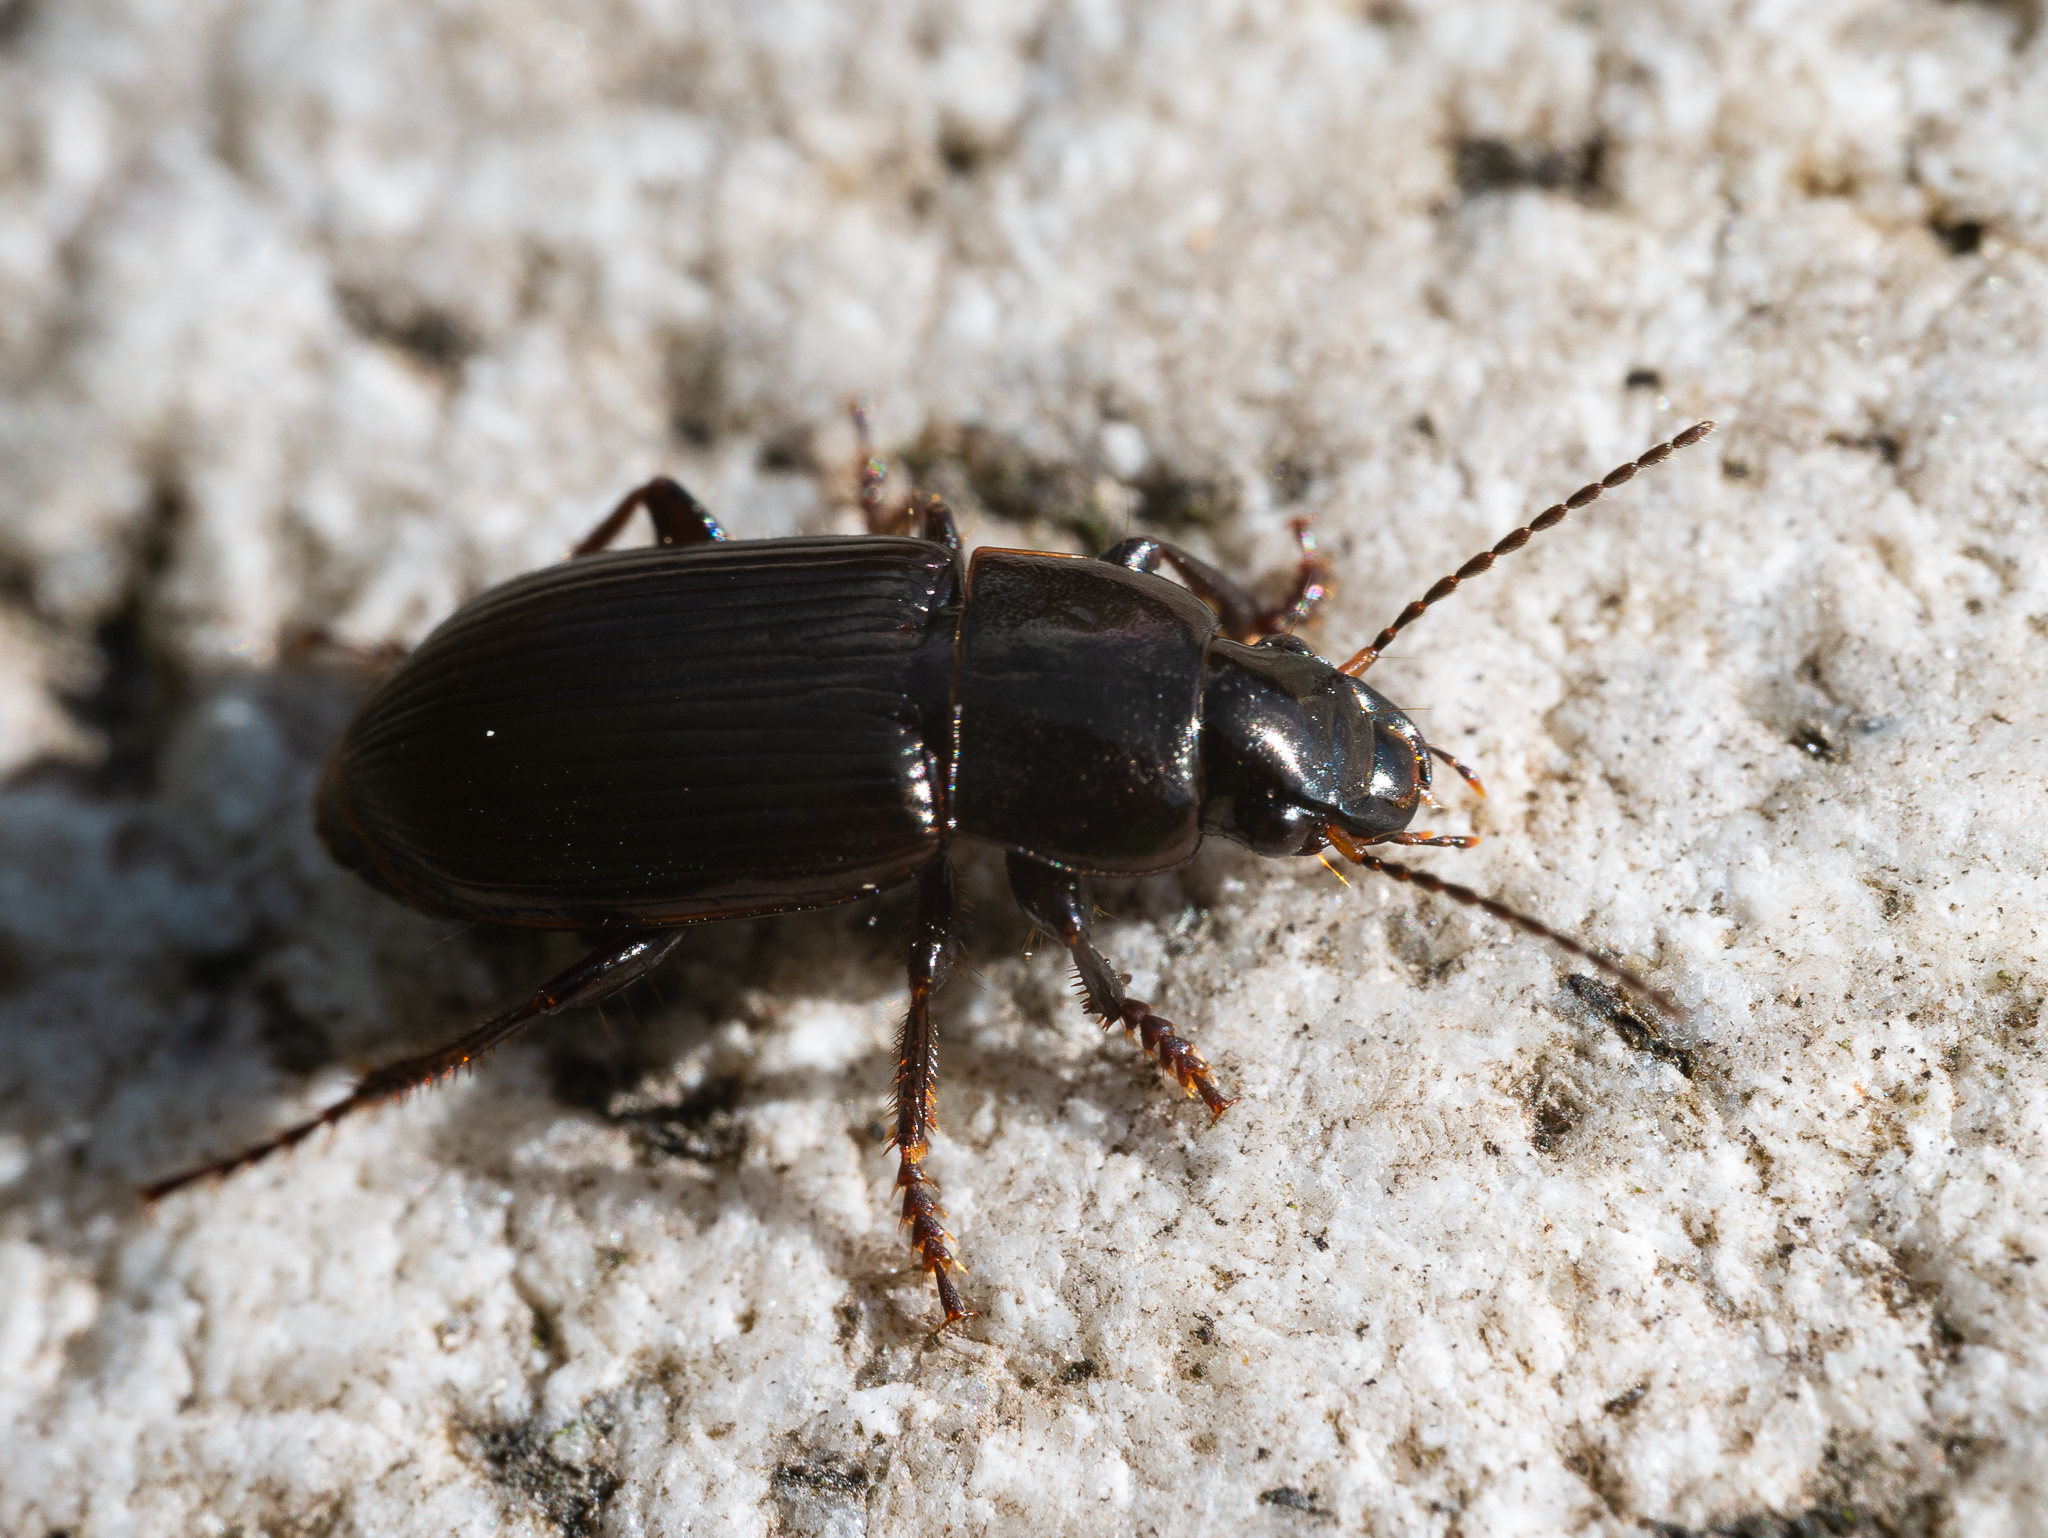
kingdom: Animalia
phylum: Arthropoda
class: Insecta
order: Coleoptera
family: Carabidae
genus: Harpalus
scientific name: Harpalus affinis
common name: Polychrome harp ground beetle
